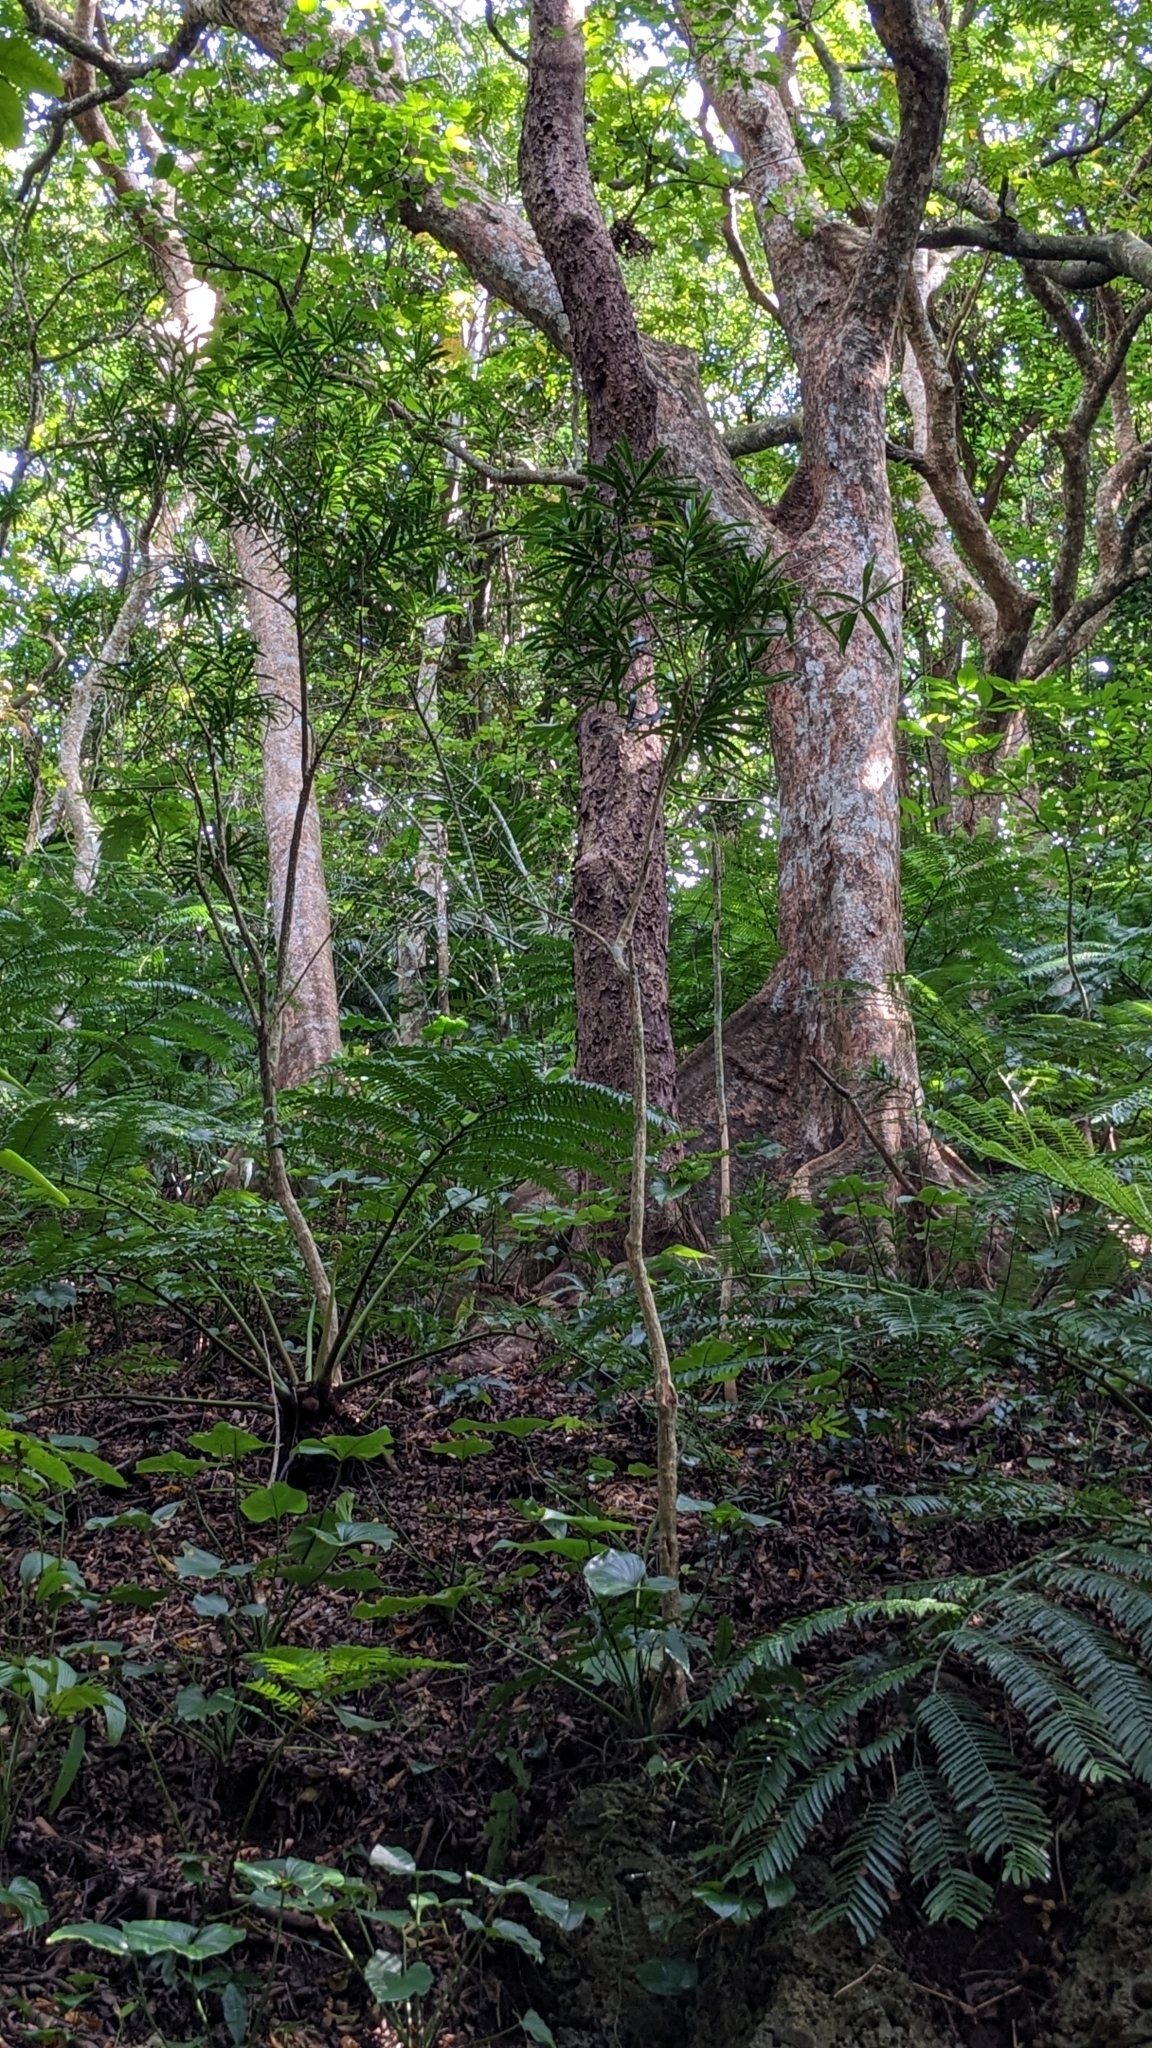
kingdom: Plantae
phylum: Tracheophyta
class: Magnoliopsida
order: Sapindales
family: Sapindaceae
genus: Pometia
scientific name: Pometia pinnata
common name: Oceanic lychee
